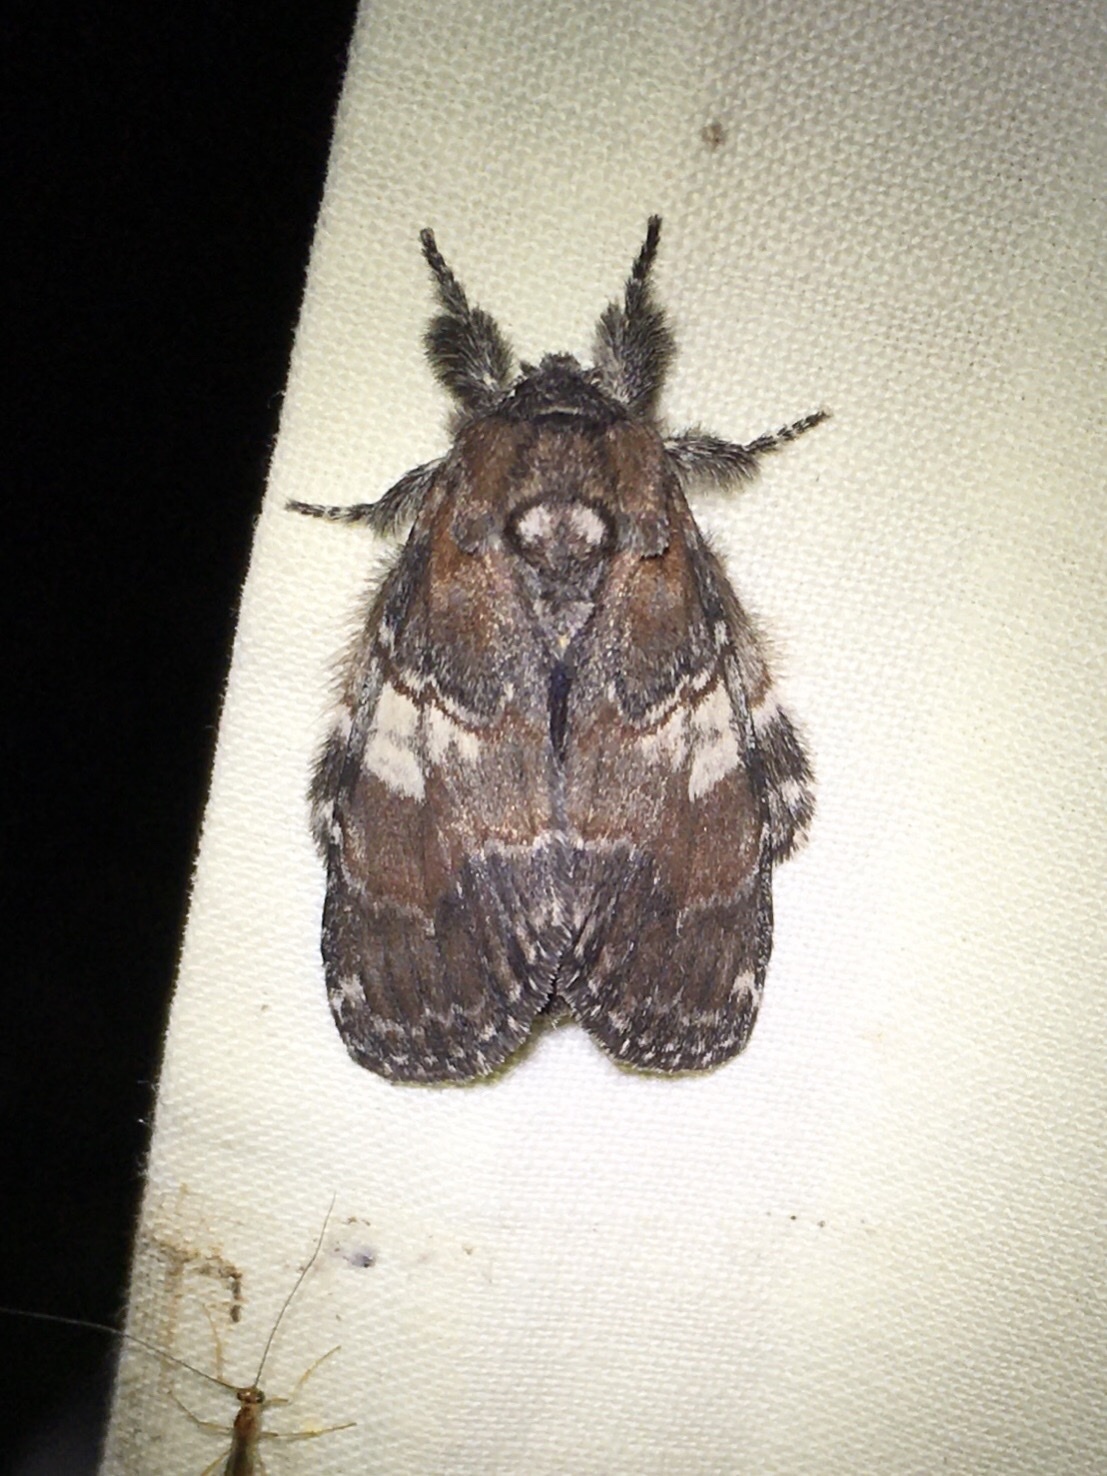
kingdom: Animalia
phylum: Arthropoda
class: Insecta
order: Lepidoptera
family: Notodontidae
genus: Peridea
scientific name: Peridea ferruginea
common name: Chocolate prominent
